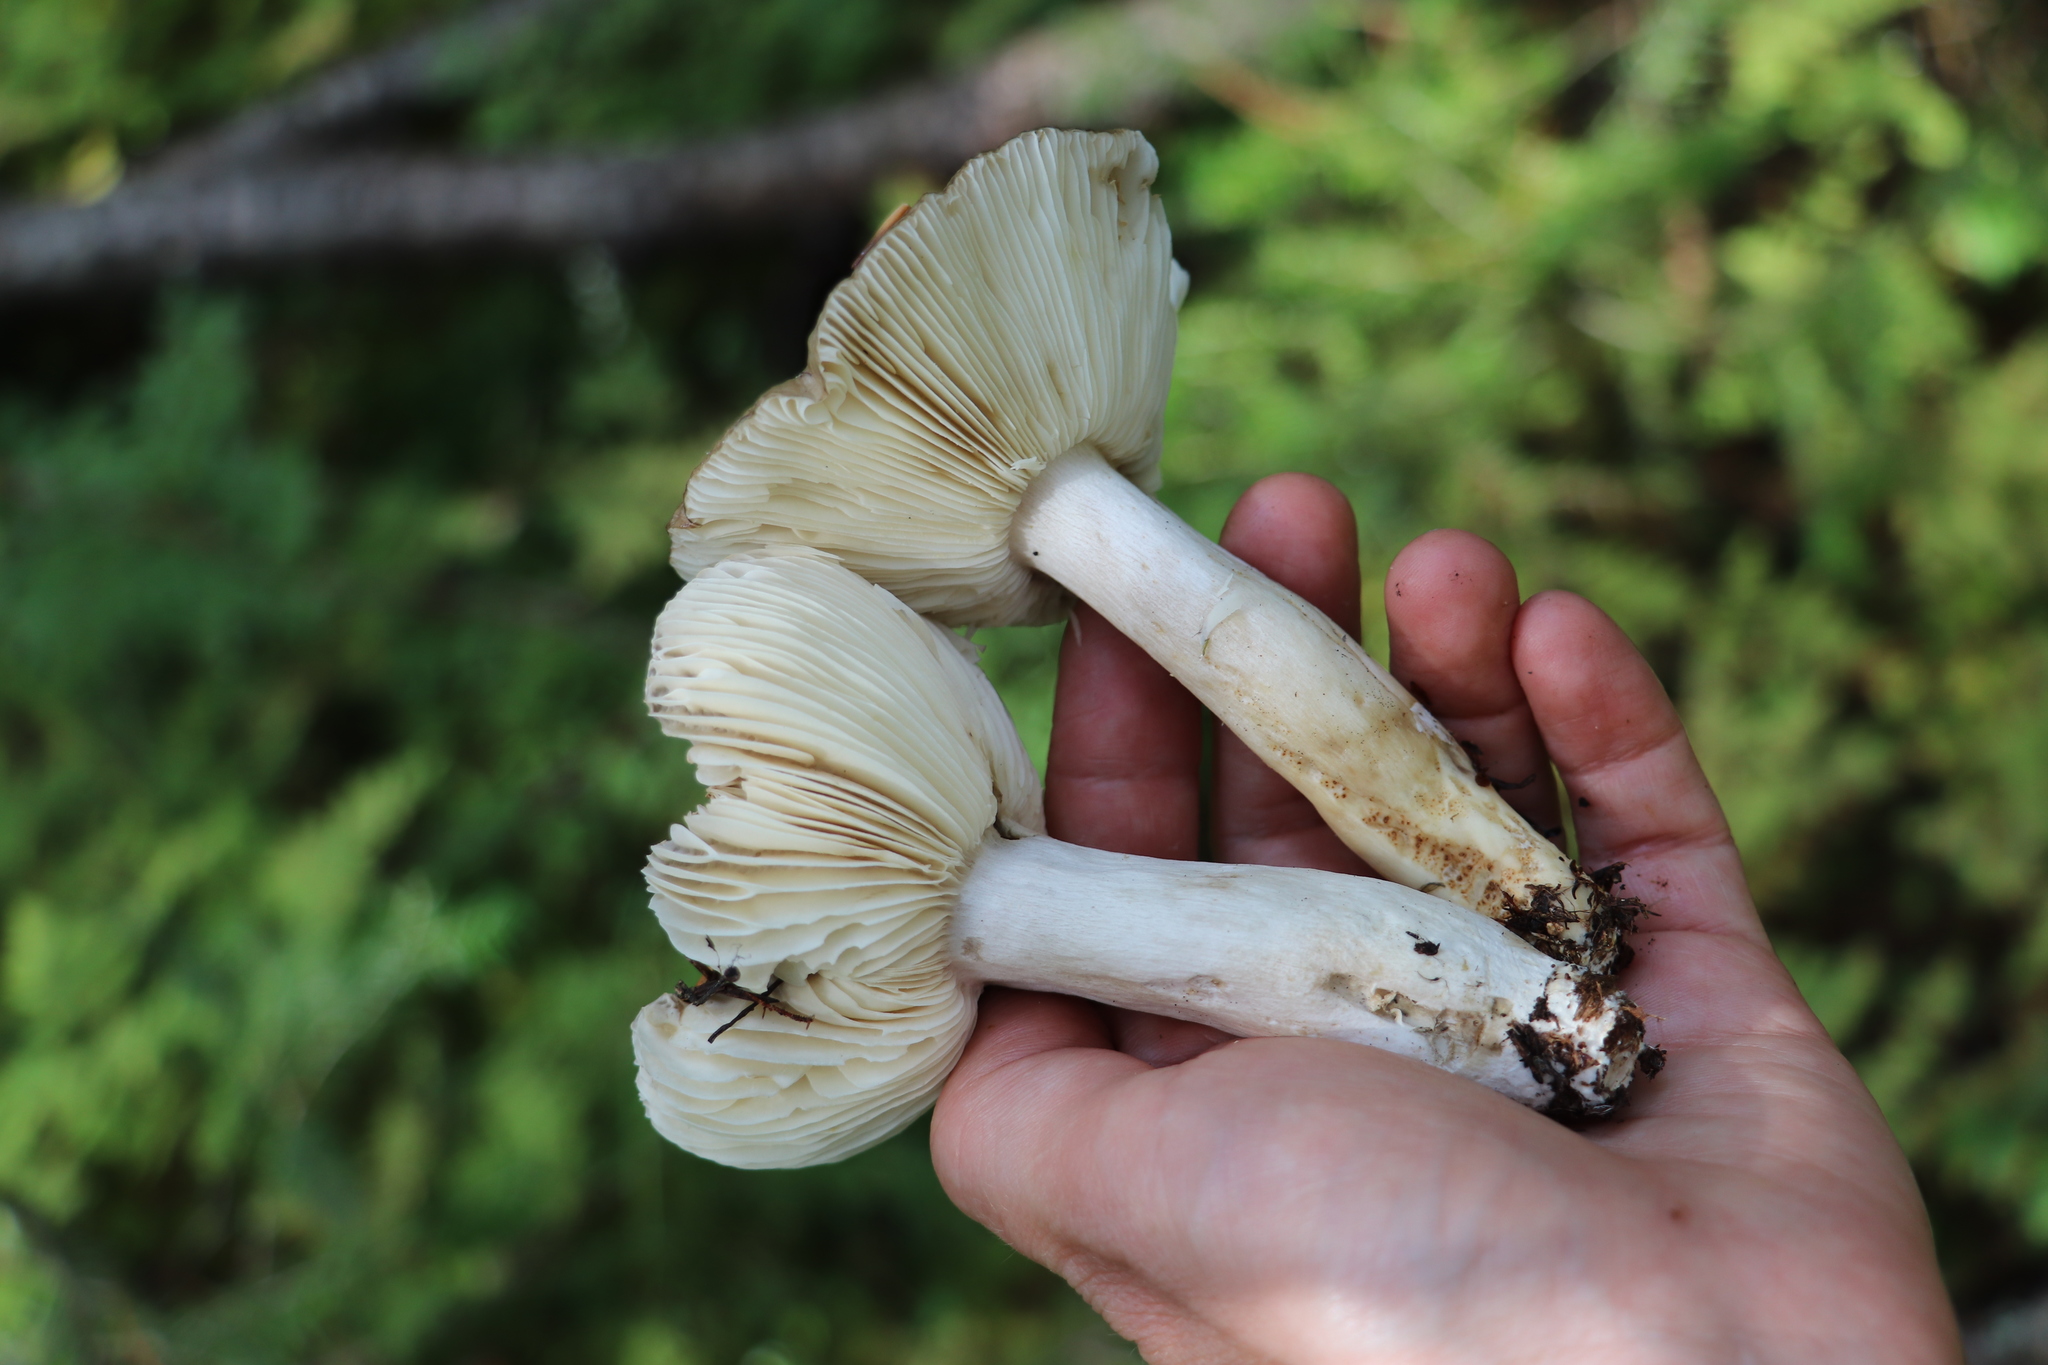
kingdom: Fungi
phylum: Basidiomycota
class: Agaricomycetes
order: Russulales
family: Russulaceae
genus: Russula
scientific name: Russula consobrina
